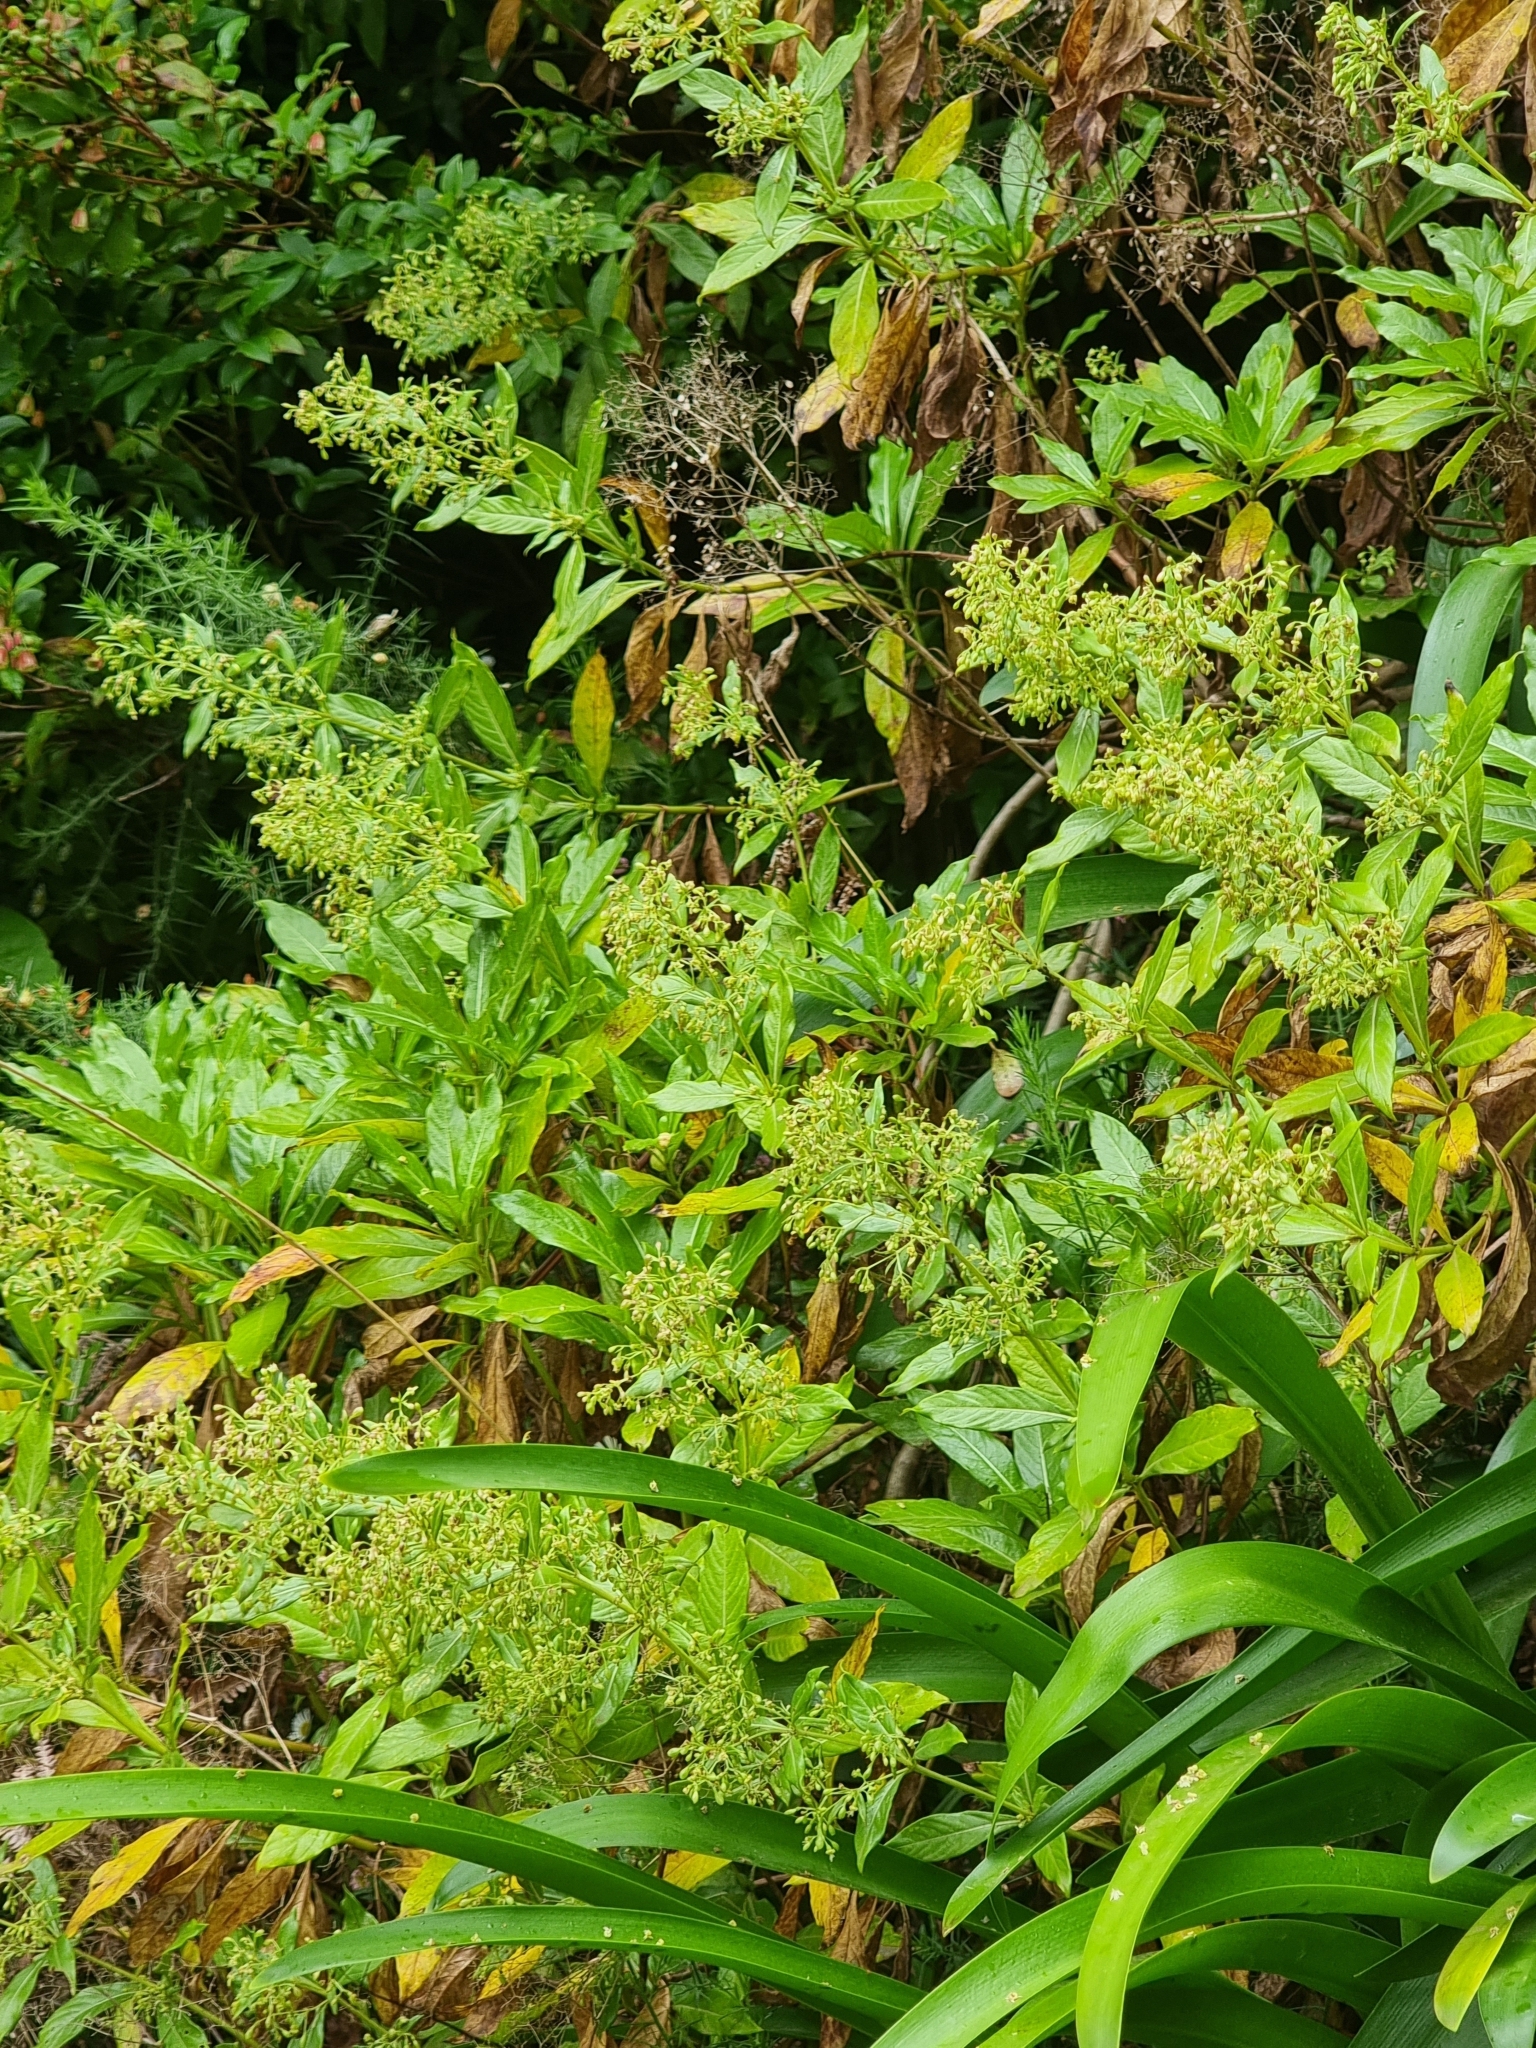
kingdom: Plantae
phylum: Tracheophyta
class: Magnoliopsida
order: Gentianales
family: Rubiaceae
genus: Phyllis
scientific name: Phyllis nobla
